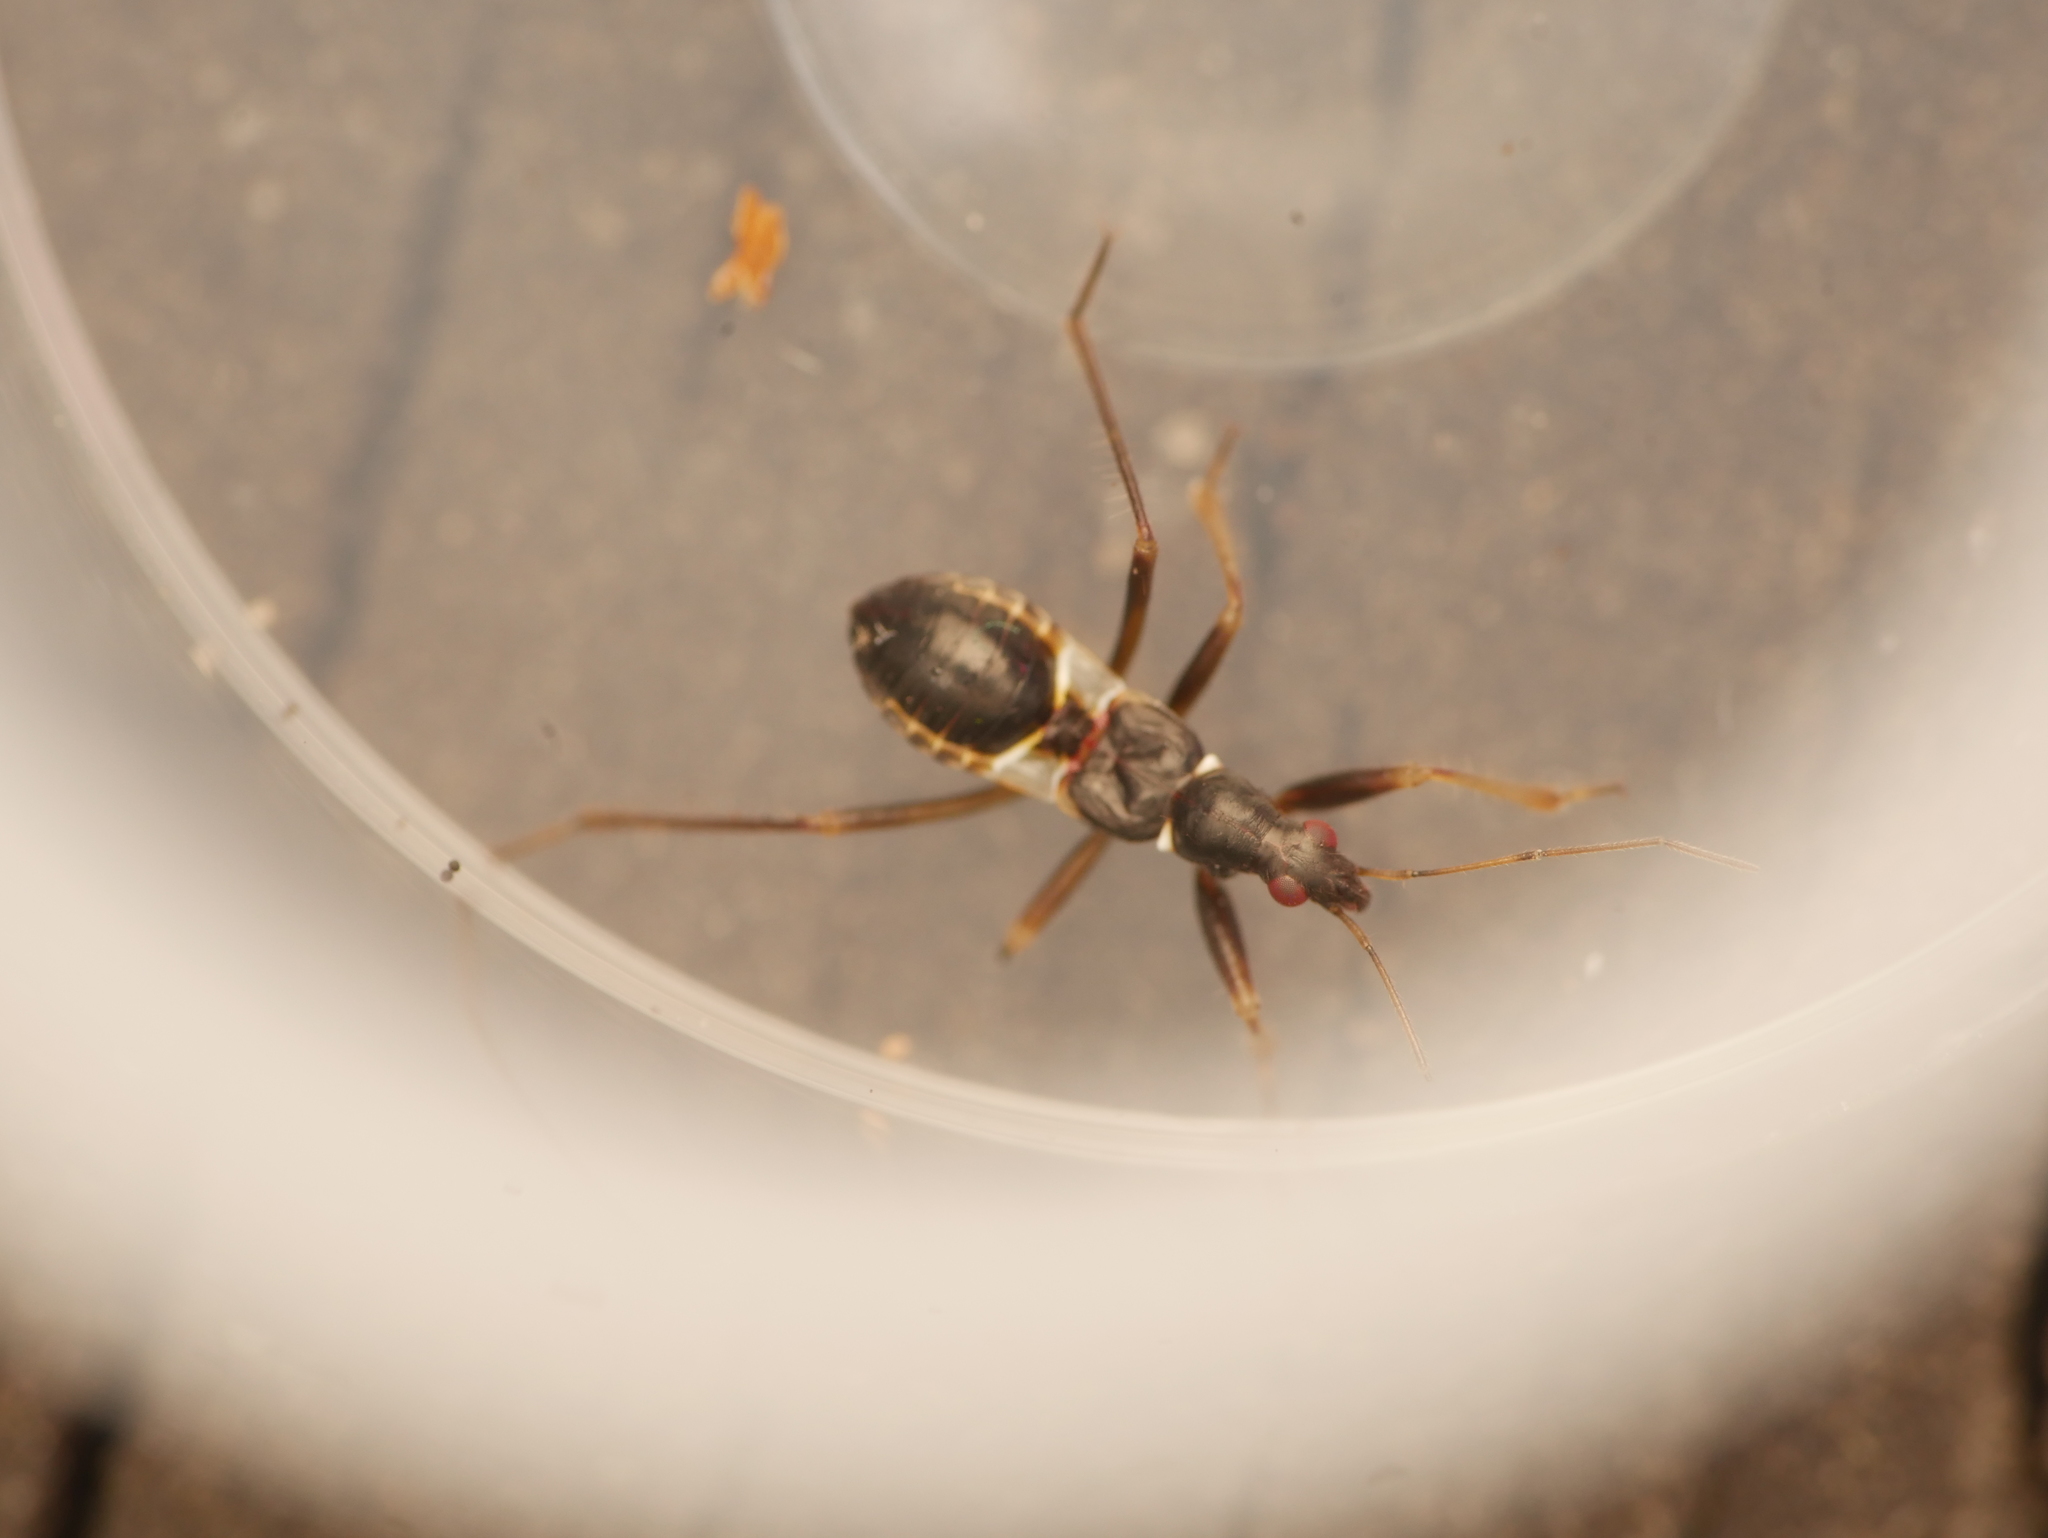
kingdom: Animalia
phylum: Arthropoda
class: Insecta
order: Hemiptera
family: Nabidae
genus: Himacerus
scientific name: Himacerus mirmicoides
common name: Ant damsel bug
